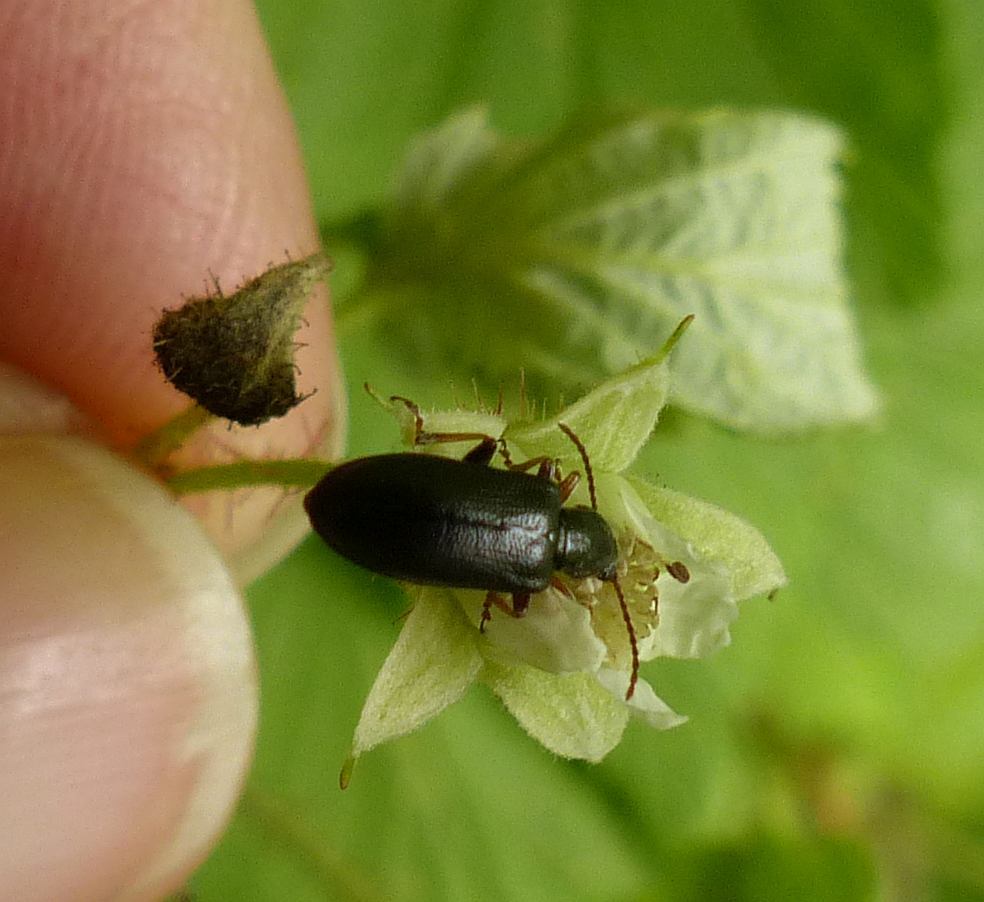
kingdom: Animalia
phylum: Arthropoda
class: Insecta
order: Coleoptera
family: Orsodacnidae
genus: Orsodacne
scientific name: Orsodacne atra
